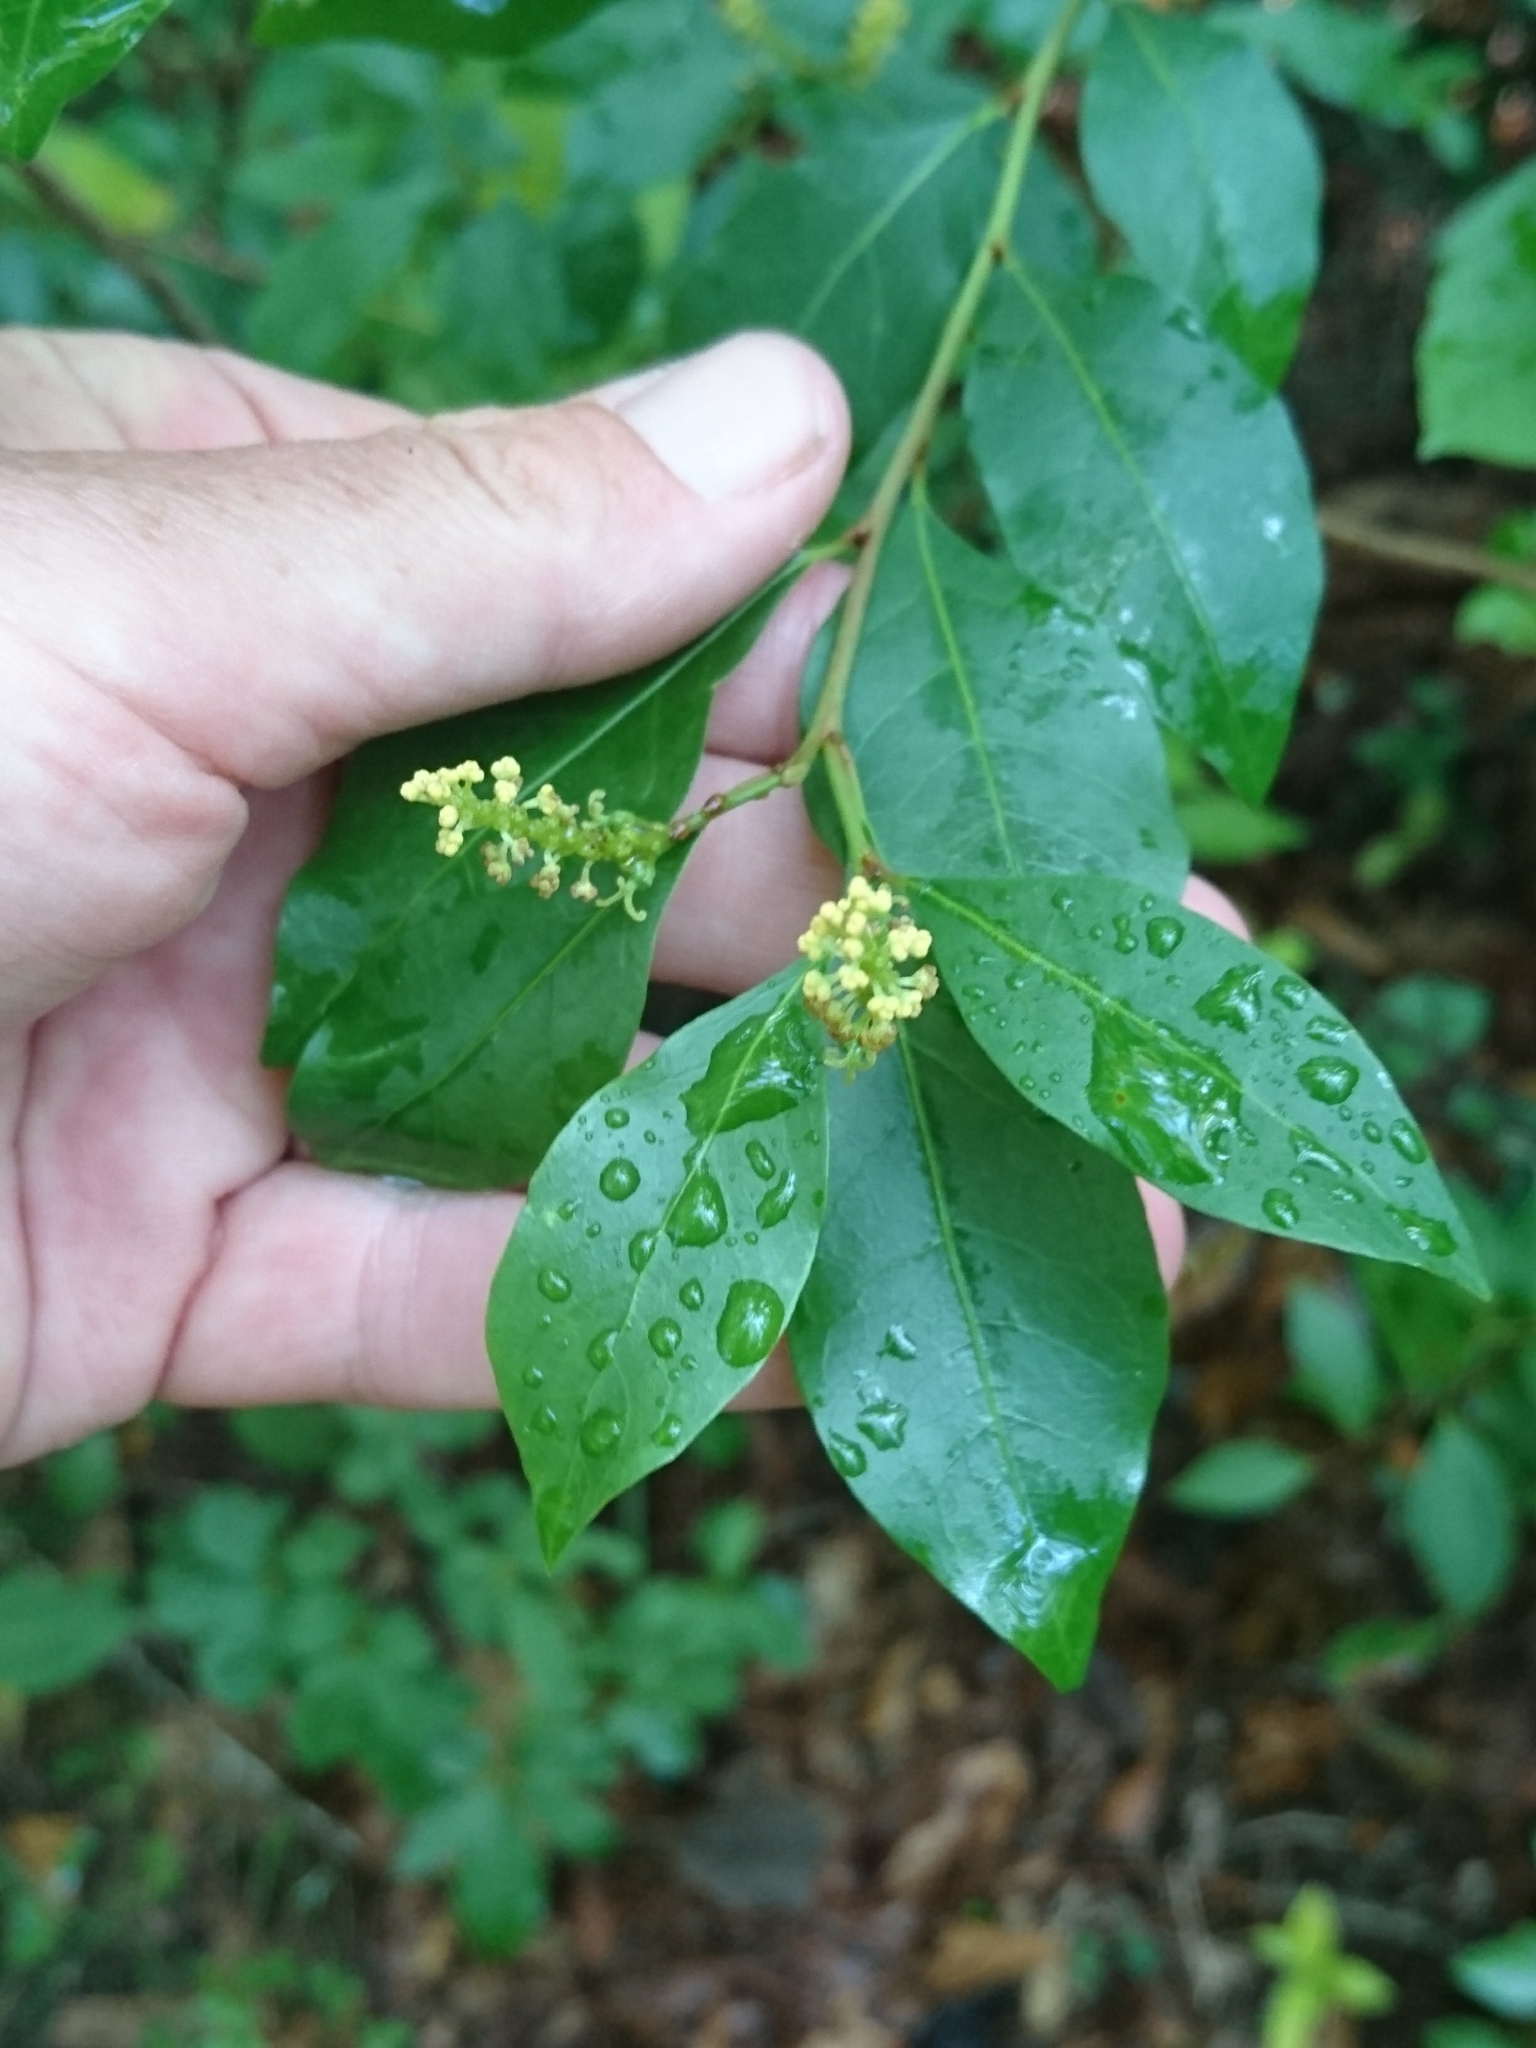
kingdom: Plantae
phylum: Tracheophyta
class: Magnoliopsida
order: Malpighiales
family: Euphorbiaceae
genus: Ditrysinia
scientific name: Ditrysinia fruticosa
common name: Gulf sebastian-bush
